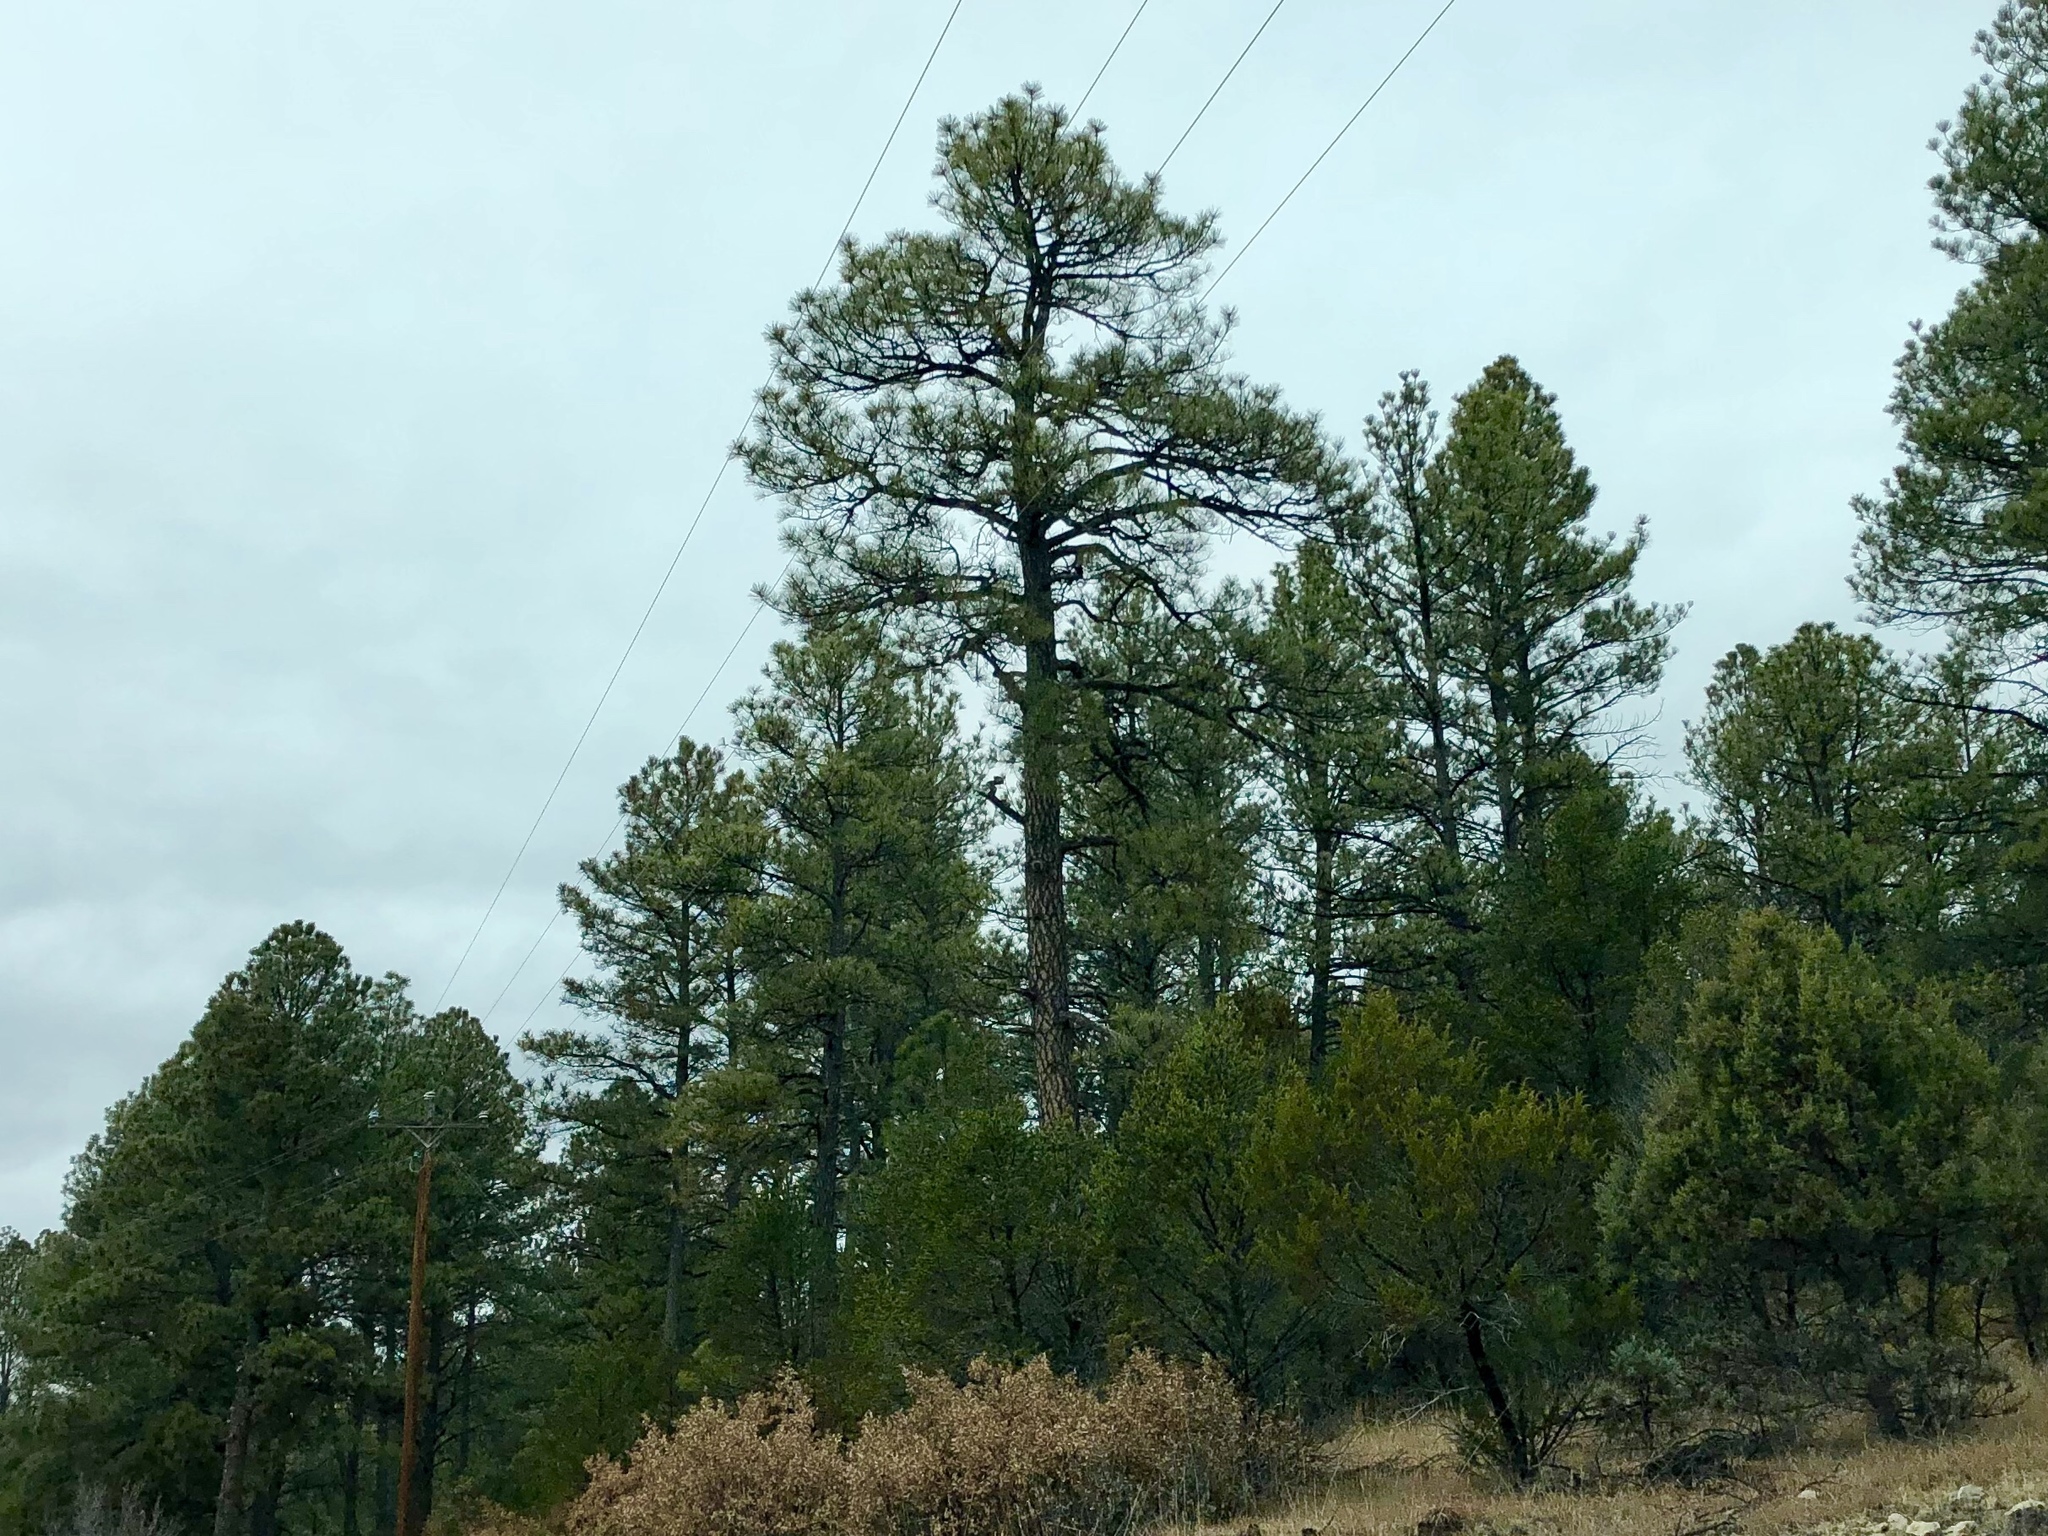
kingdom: Plantae
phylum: Tracheophyta
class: Pinopsida
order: Pinales
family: Pinaceae
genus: Pinus
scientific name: Pinus ponderosa
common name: Western yellow-pine
